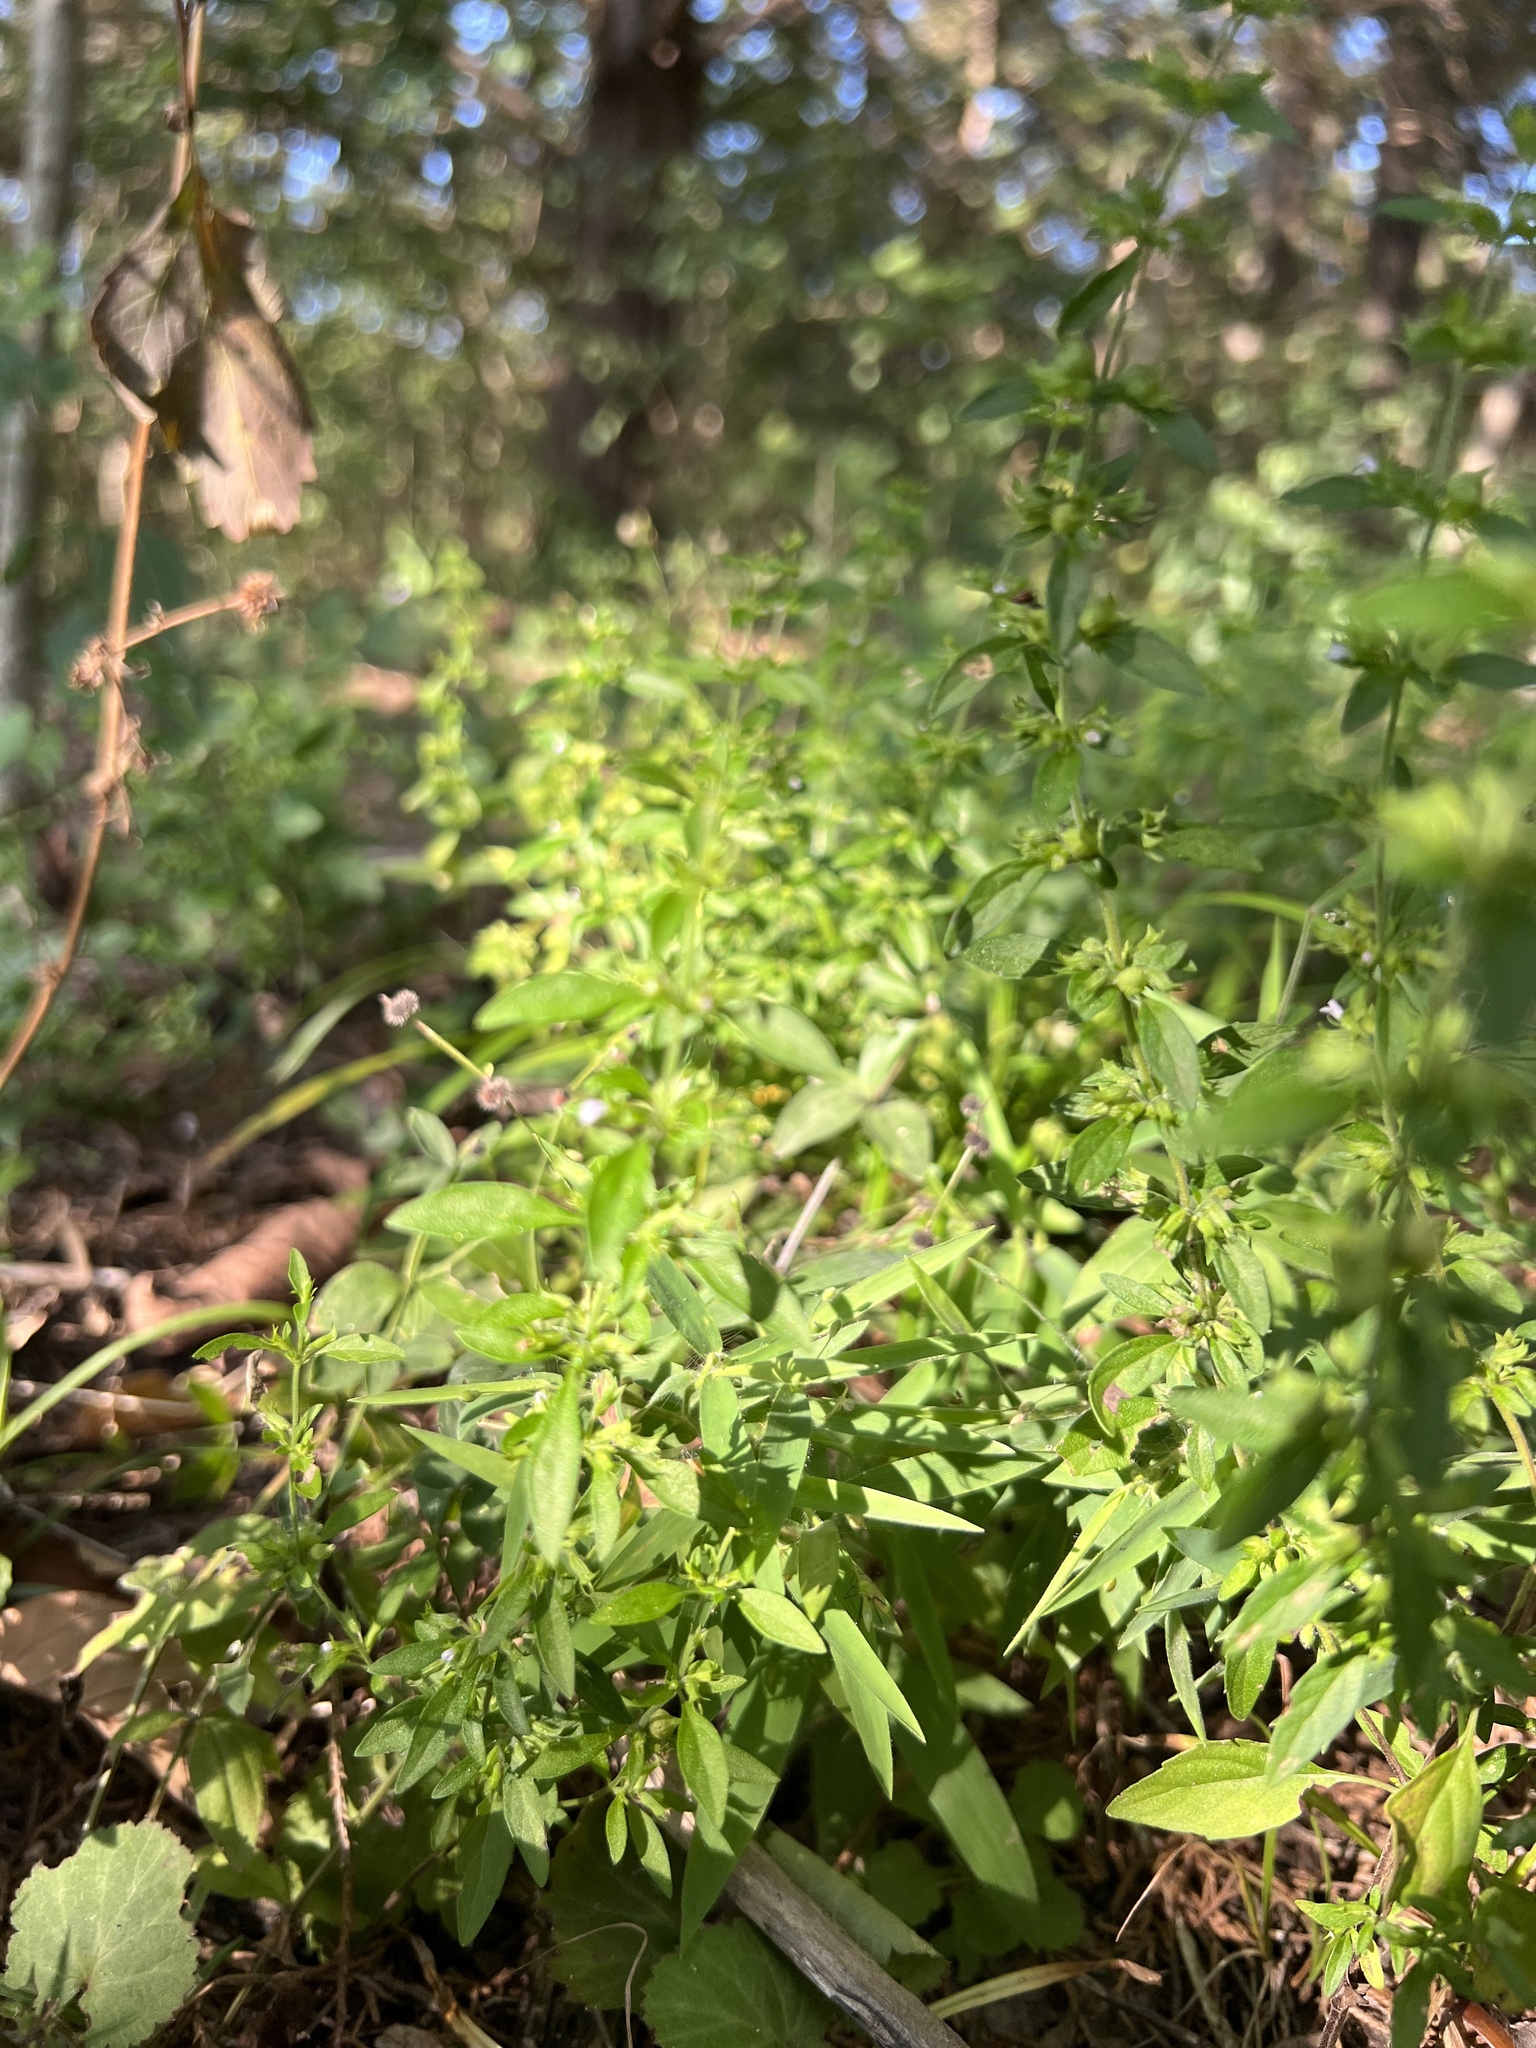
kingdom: Plantae
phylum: Tracheophyta
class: Magnoliopsida
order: Lamiales
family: Lamiaceae
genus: Hedeoma
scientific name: Hedeoma pulegioides
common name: American false pennyroyal
